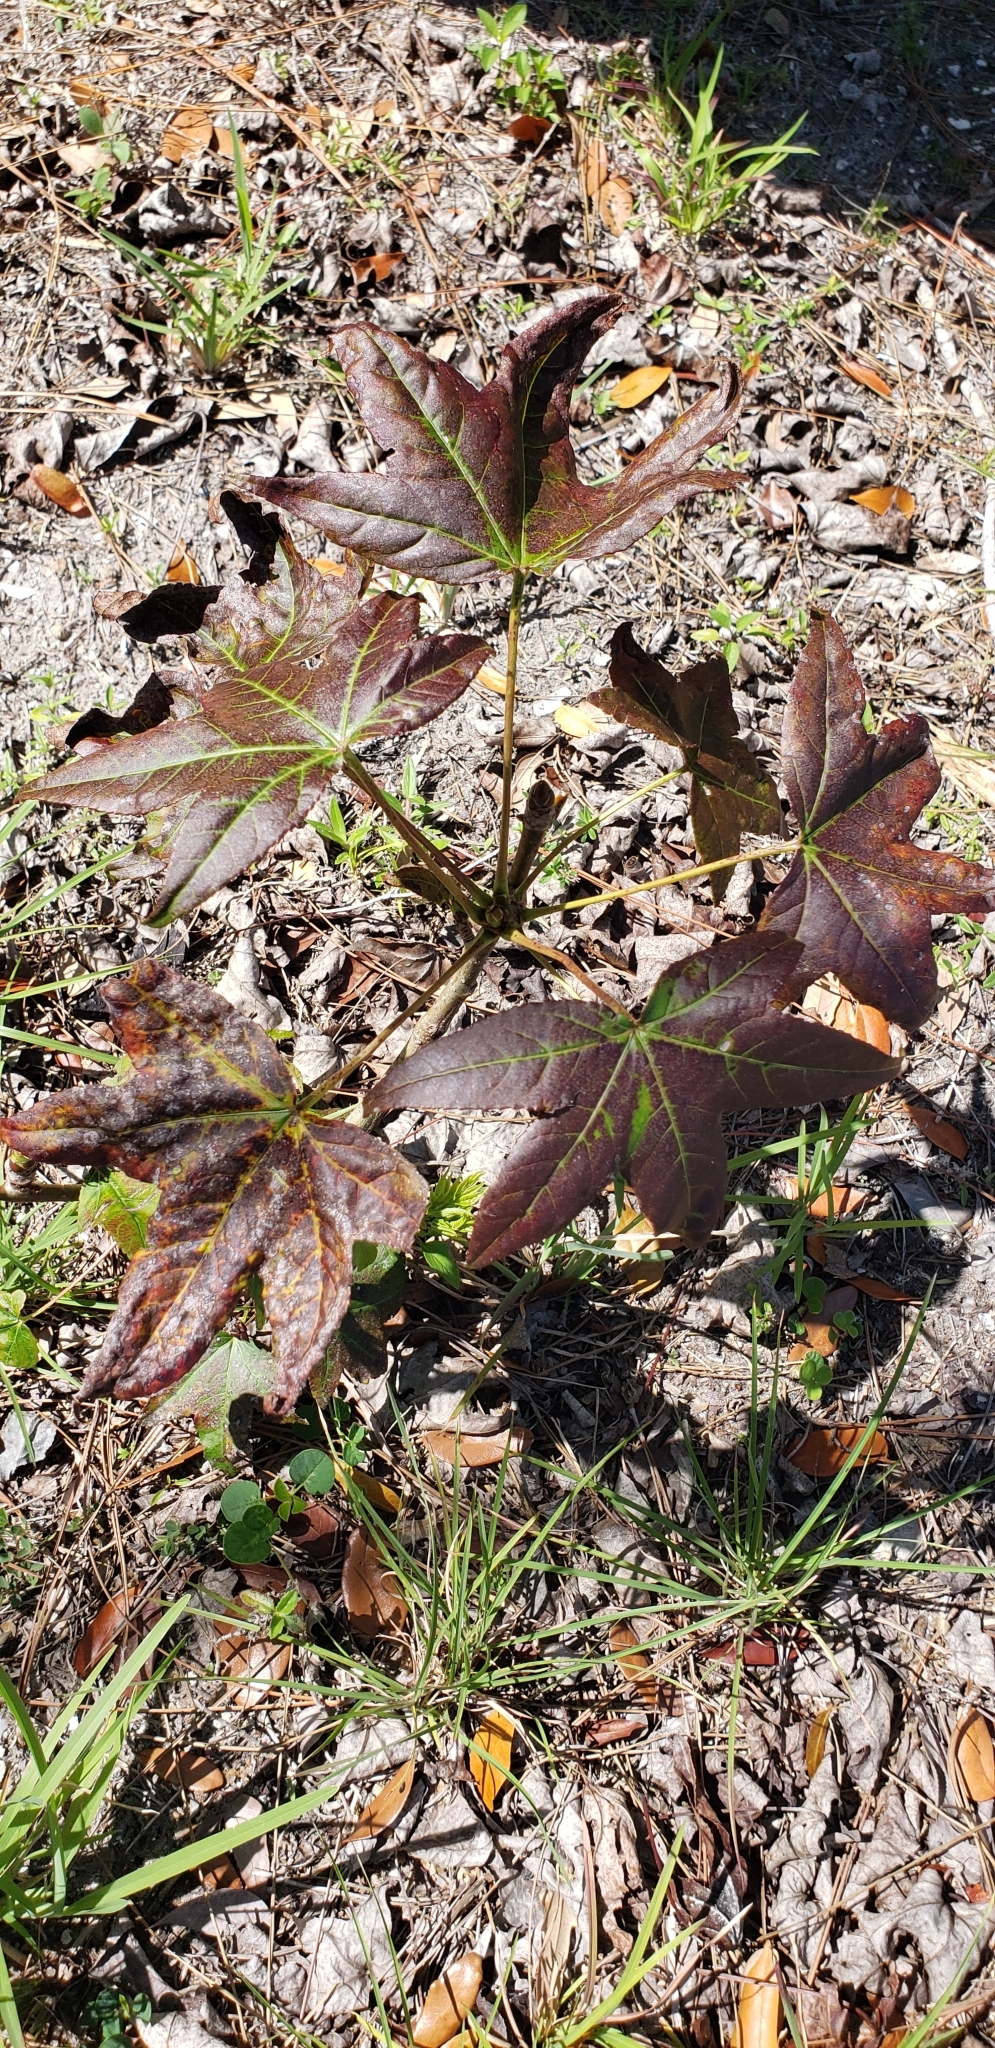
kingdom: Plantae
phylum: Tracheophyta
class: Magnoliopsida
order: Saxifragales
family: Altingiaceae
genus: Liquidambar
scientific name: Liquidambar styraciflua
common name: Sweet gum
